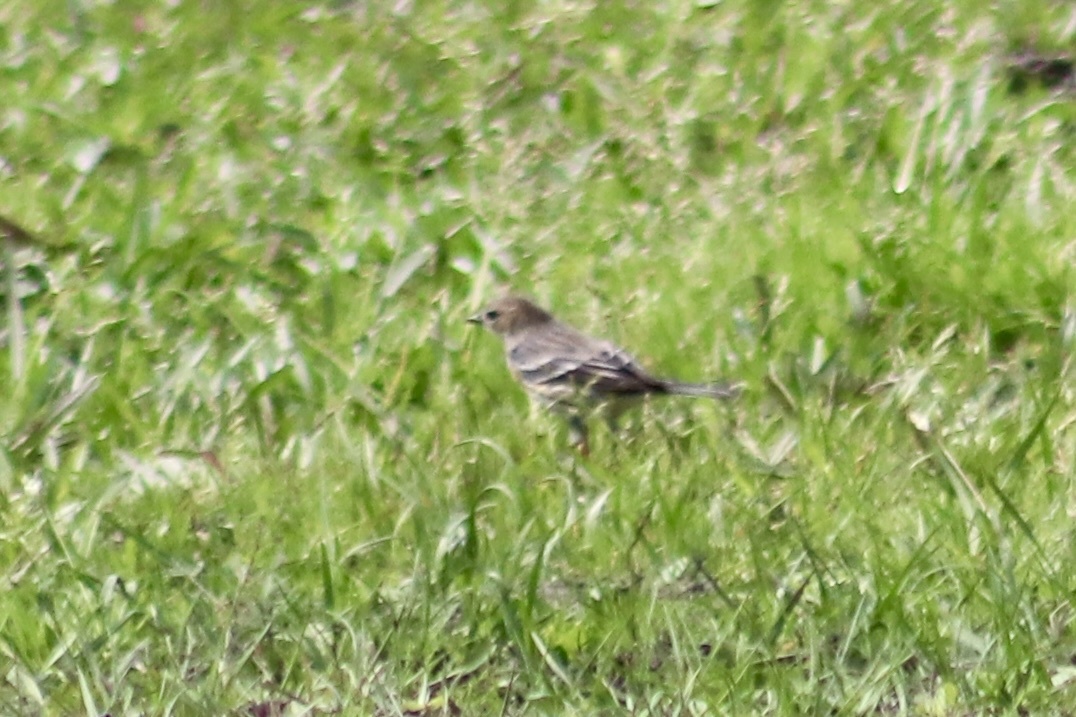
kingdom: Animalia
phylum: Chordata
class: Aves
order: Passeriformes
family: Parulidae
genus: Setophaga
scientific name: Setophaga coronata
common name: Myrtle warbler
